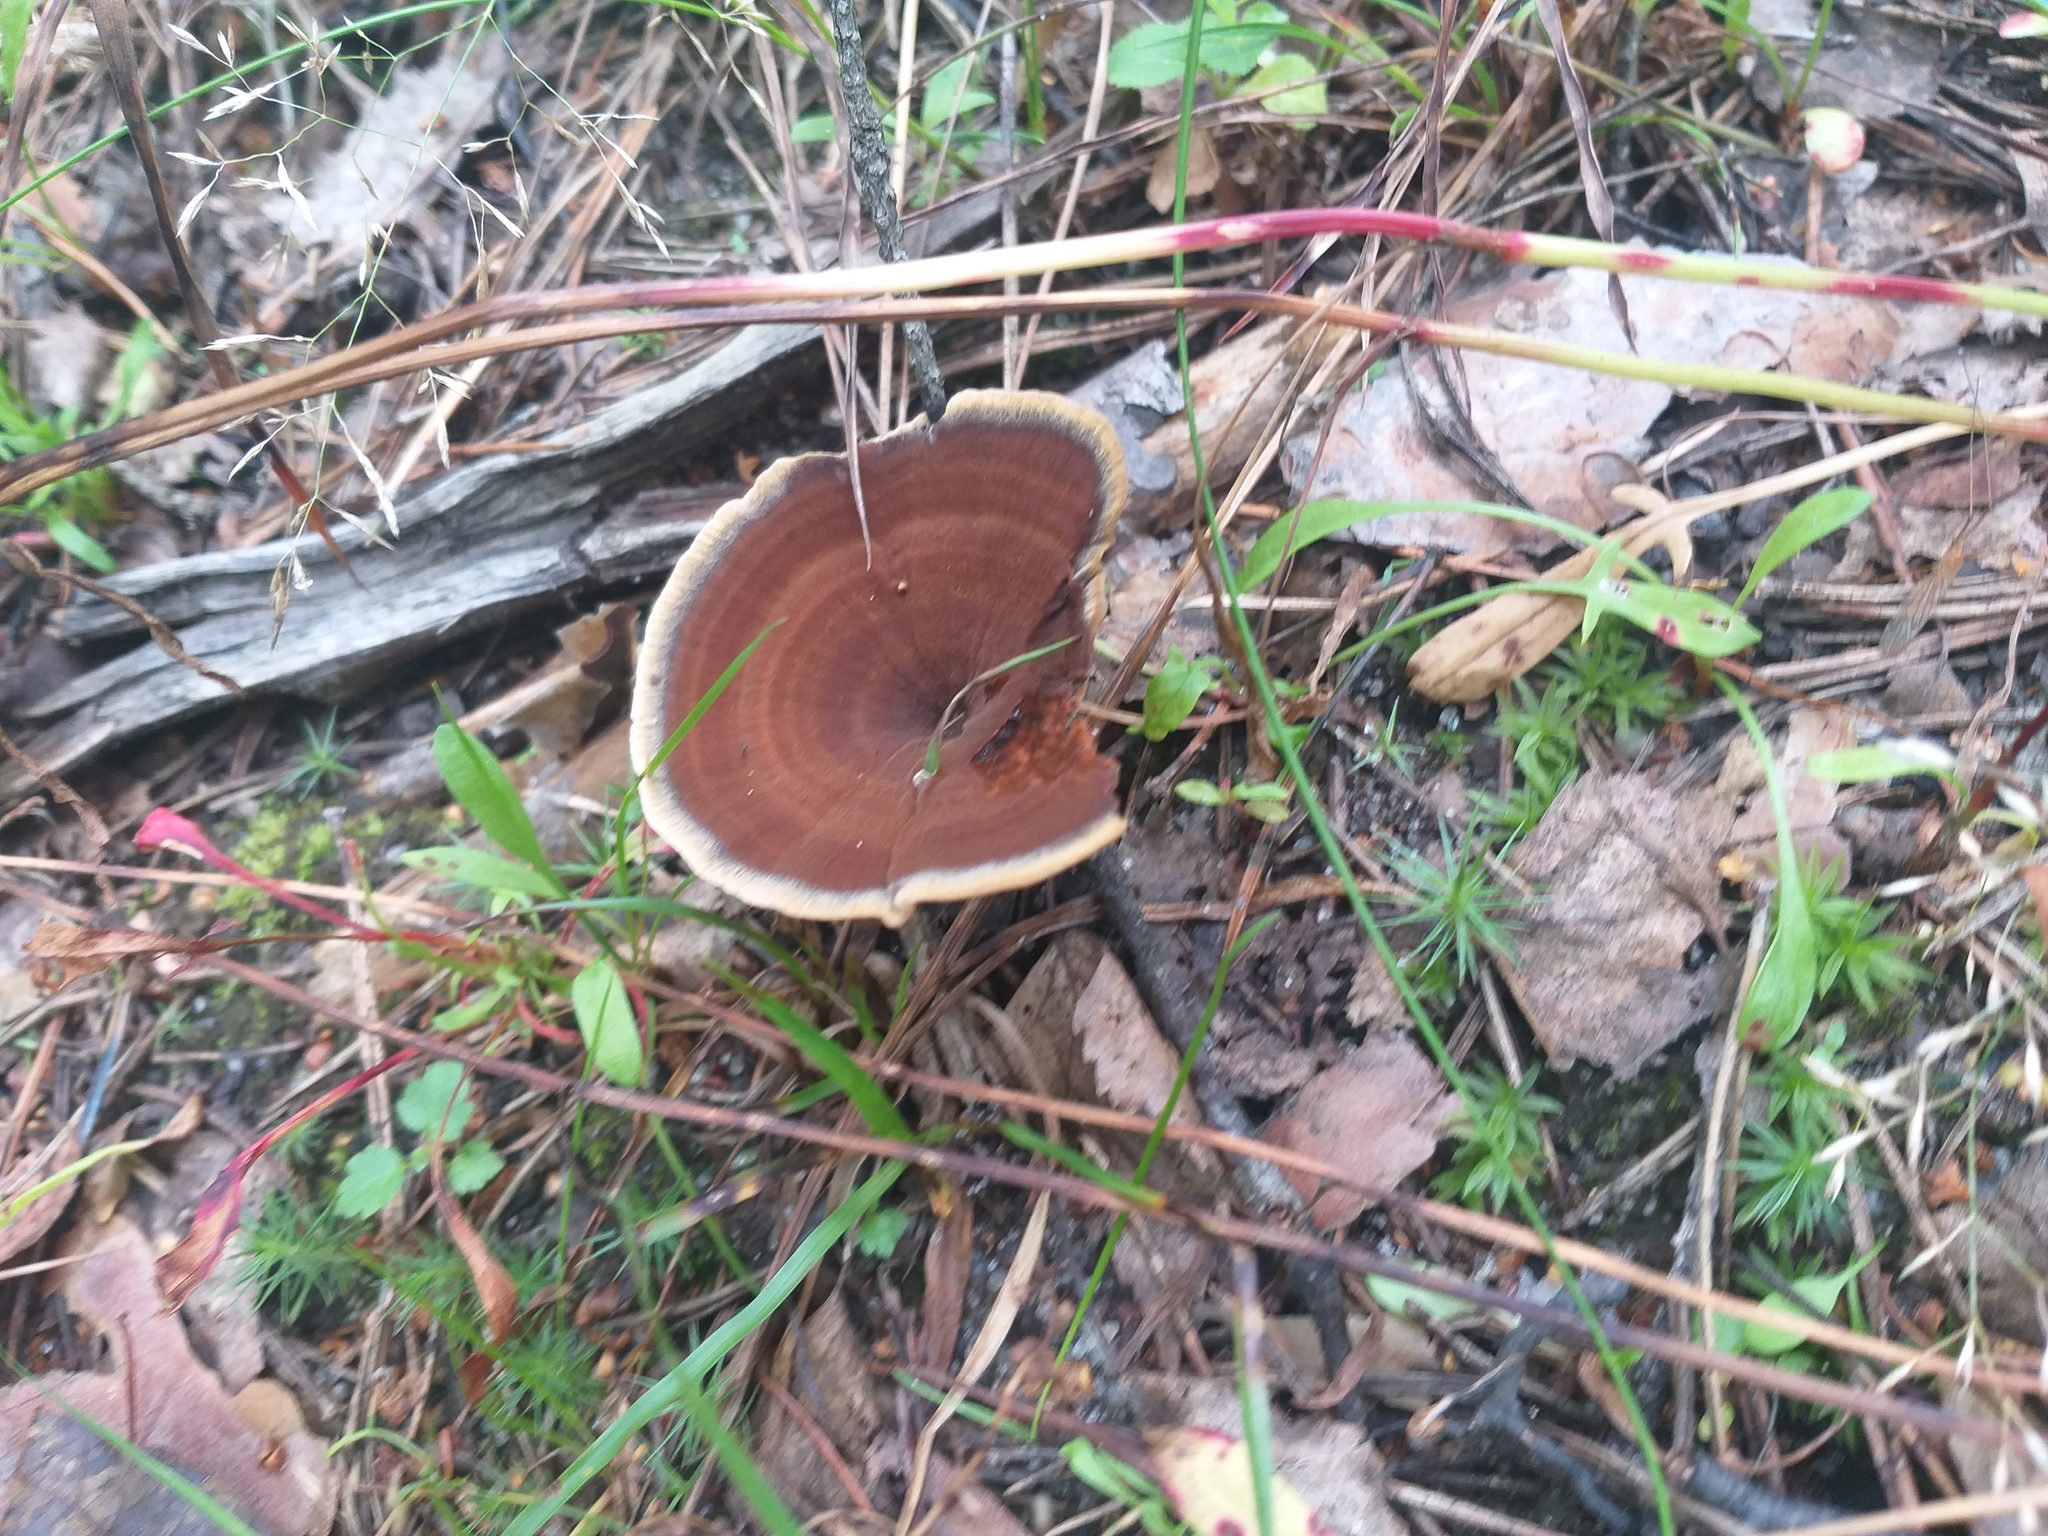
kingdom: Fungi
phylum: Basidiomycota
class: Agaricomycetes
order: Hymenochaetales
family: Hymenochaetaceae
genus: Coltricia
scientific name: Coltricia perennis
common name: Tiger's eye
